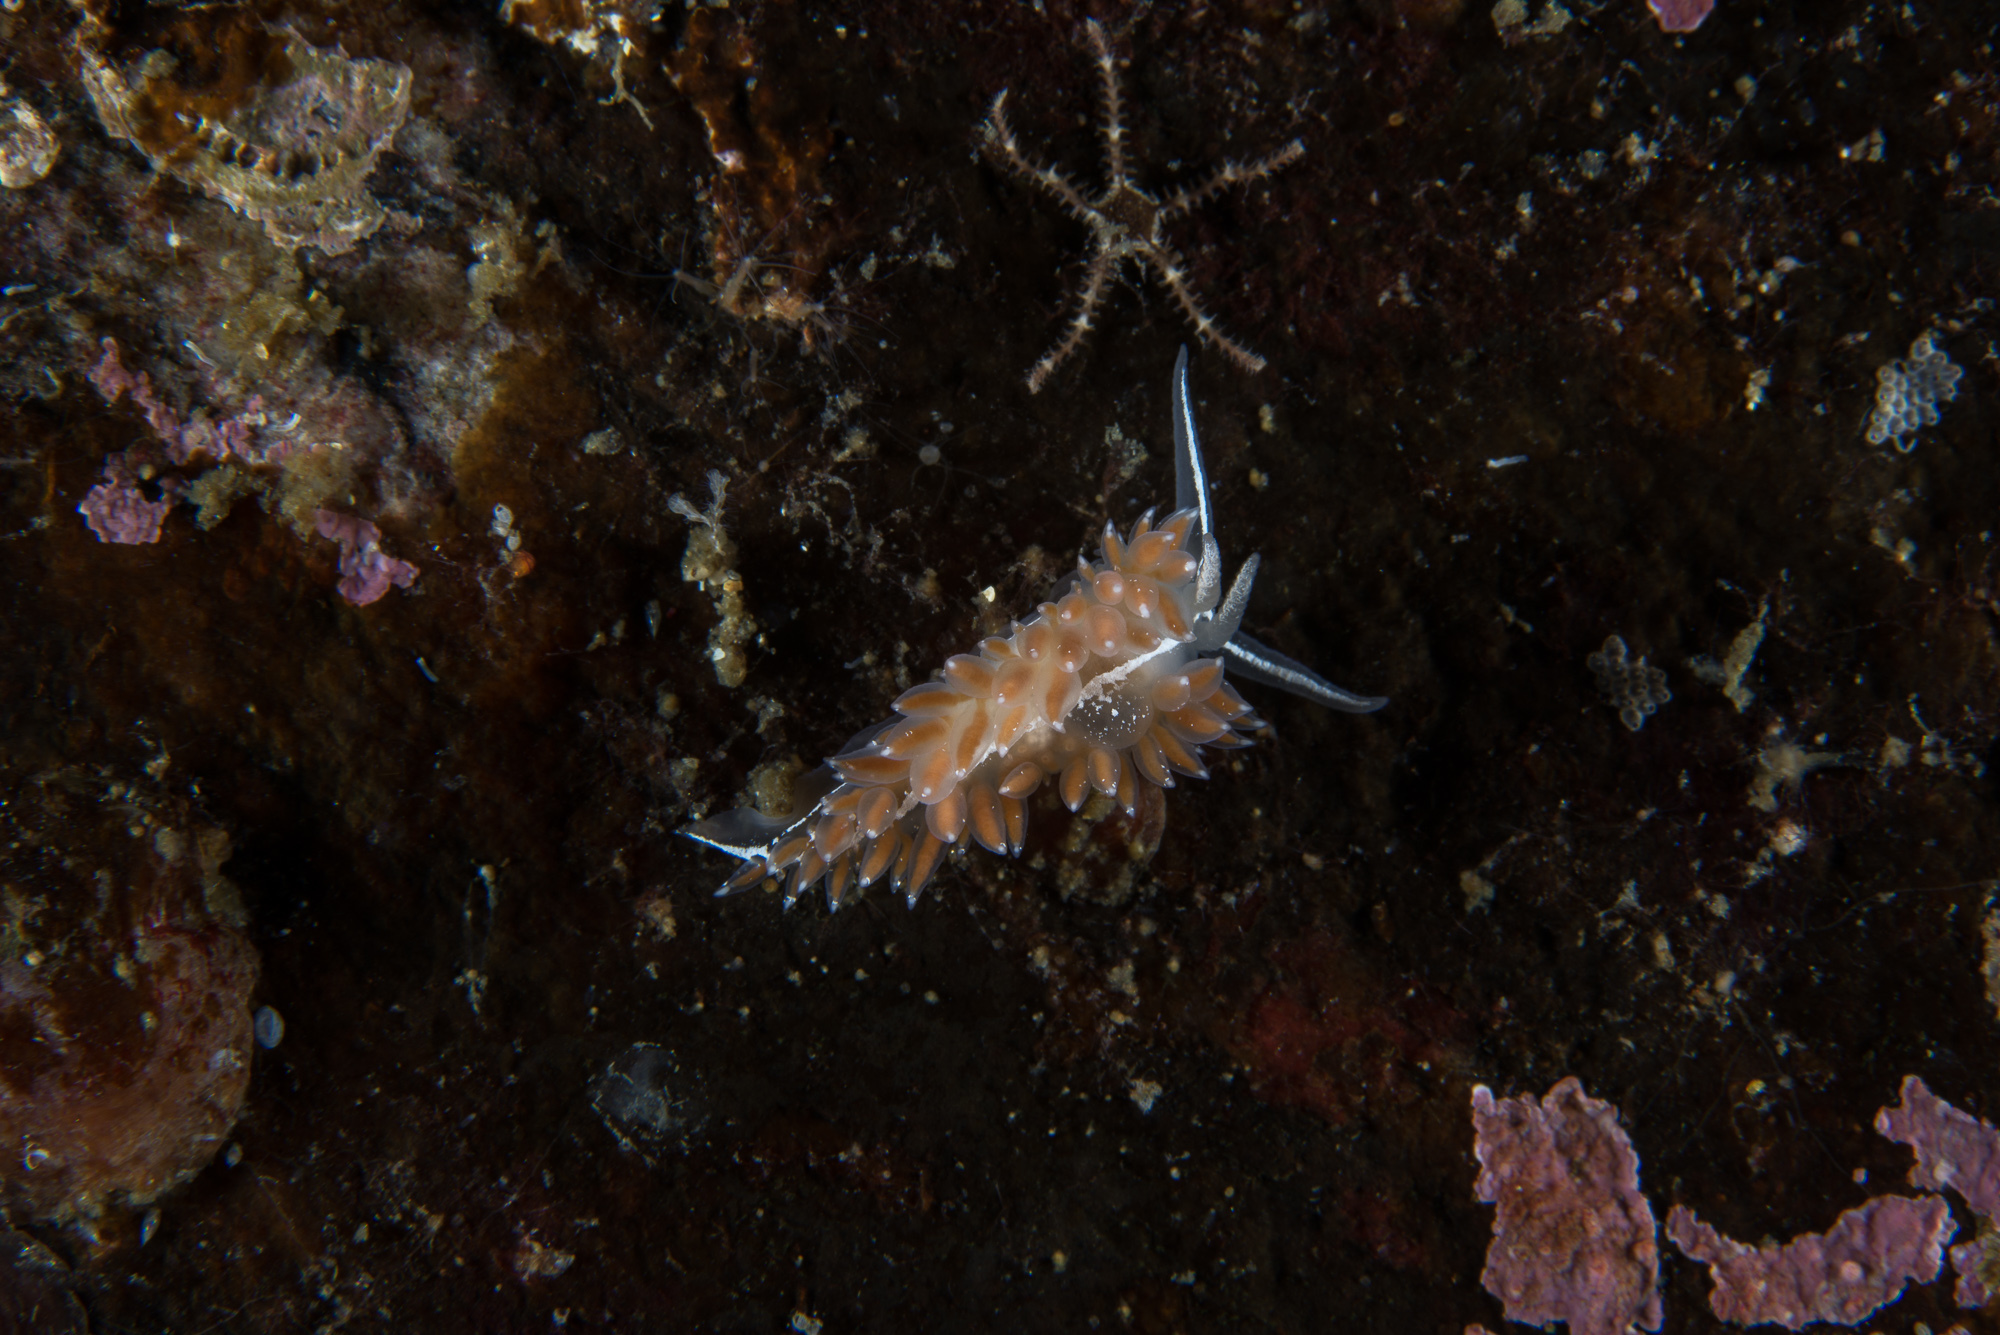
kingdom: Animalia
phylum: Mollusca
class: Gastropoda
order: Nudibranchia
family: Coryphellidae
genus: Coryphella
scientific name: Coryphella orjani
